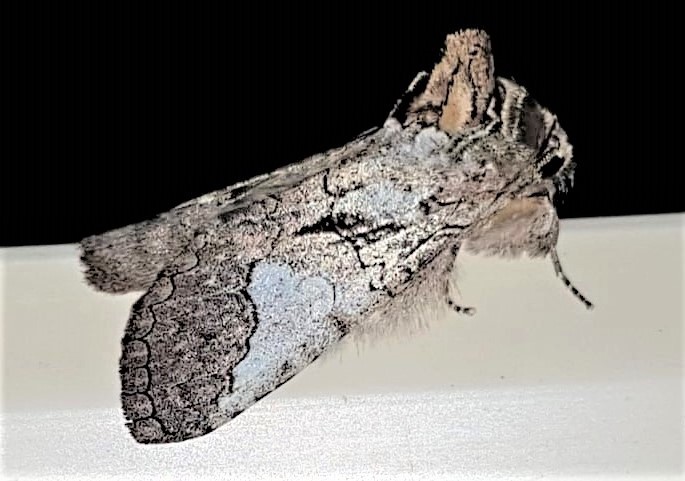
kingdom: Animalia
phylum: Arthropoda
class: Insecta
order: Lepidoptera
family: Notodontidae
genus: Rifargia
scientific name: Rifargia apella
